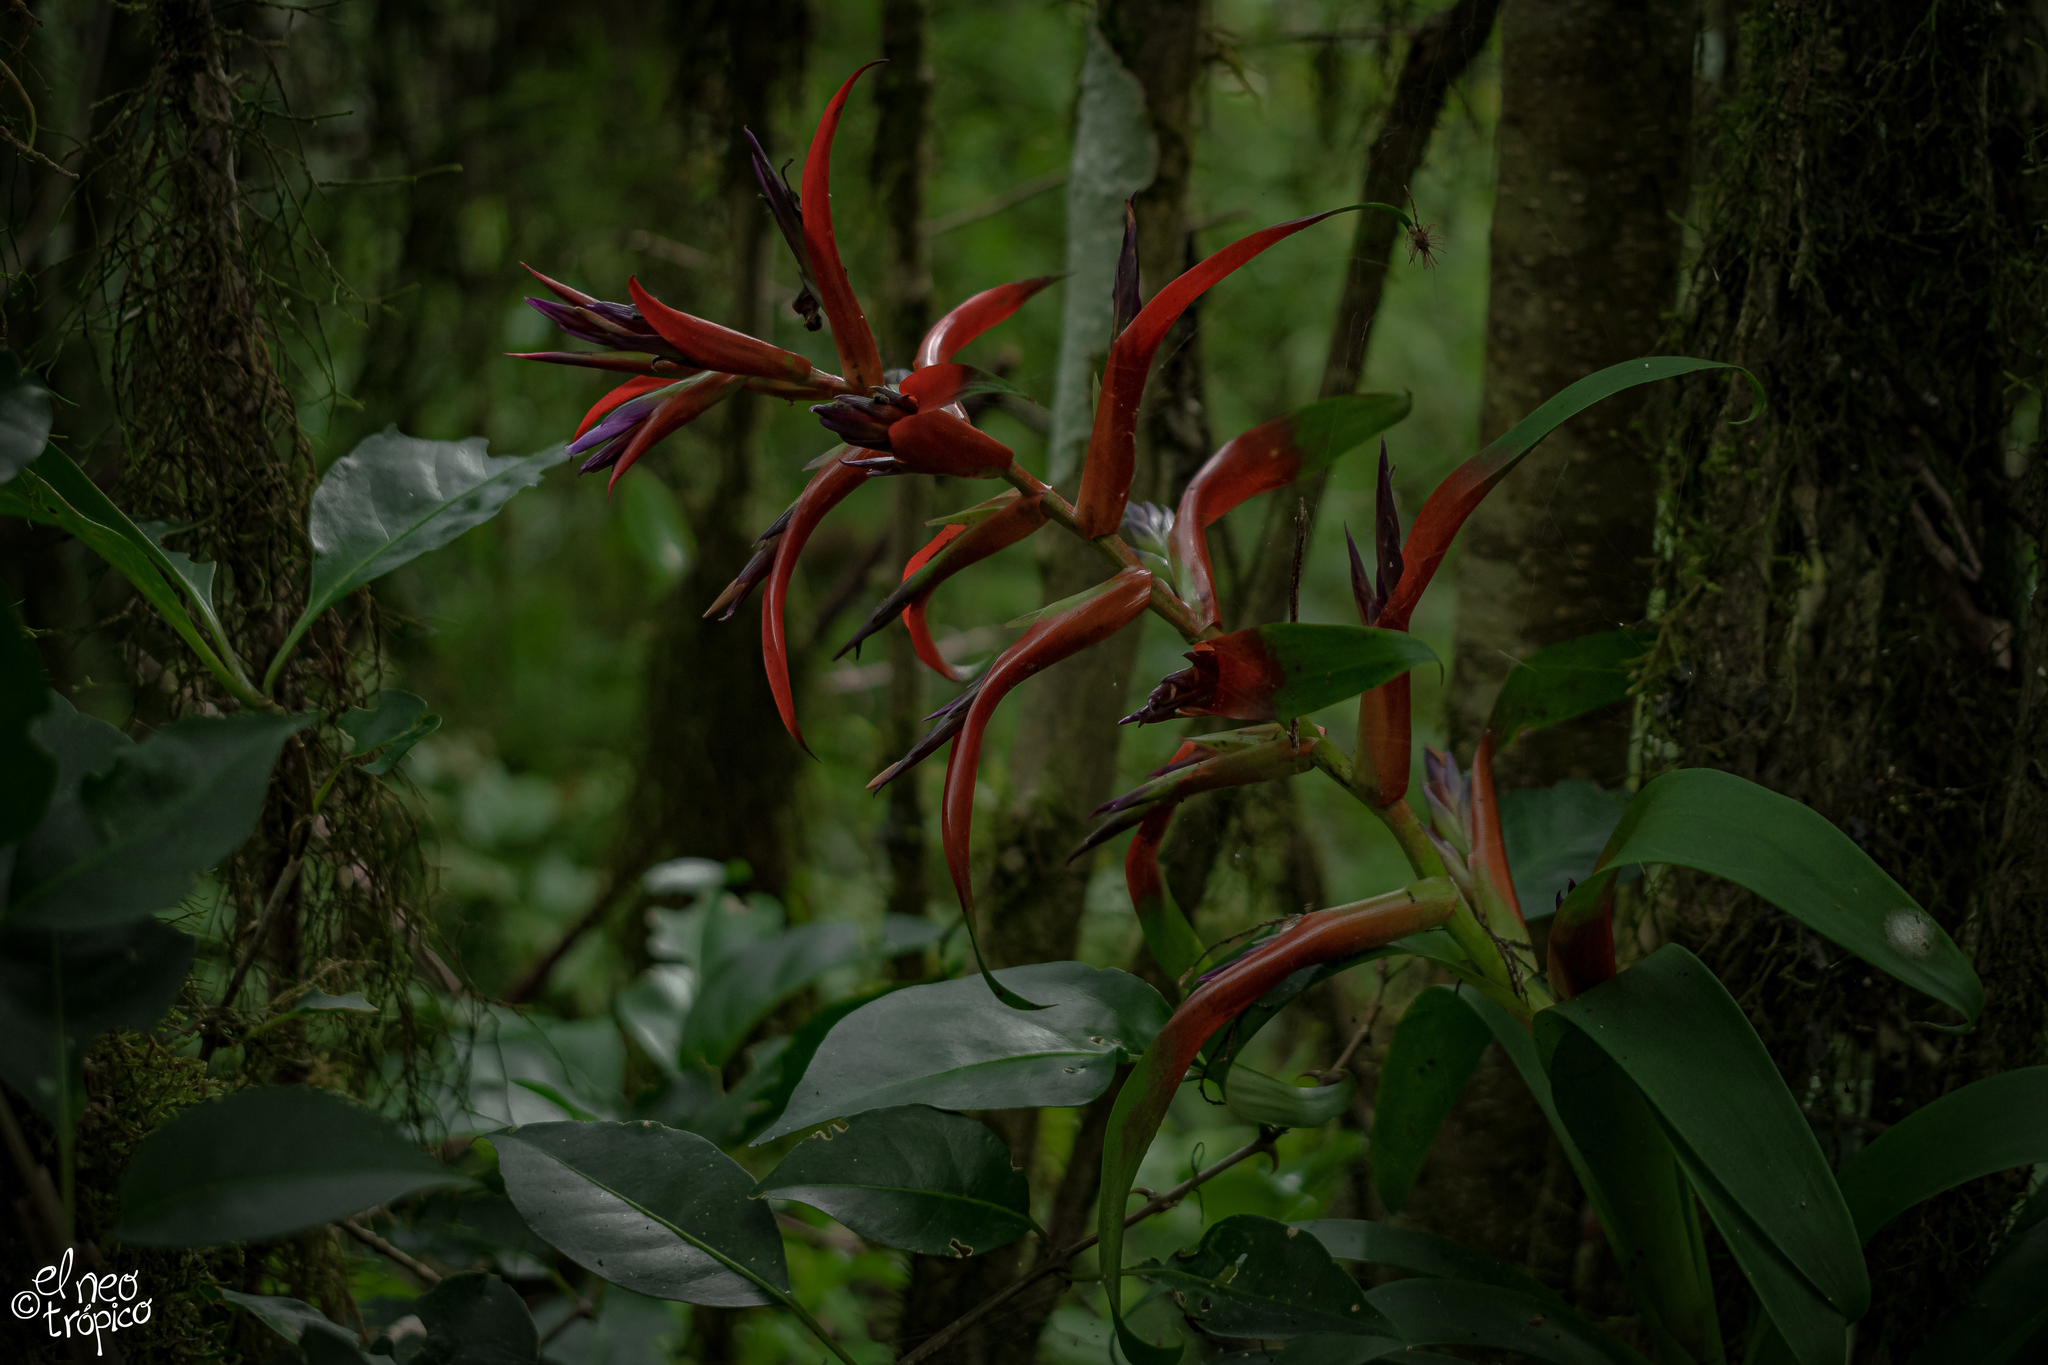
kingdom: Plantae
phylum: Tracheophyta
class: Liliopsida
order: Poales
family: Bromeliaceae
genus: Tillandsia
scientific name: Tillandsia leiboldiana
